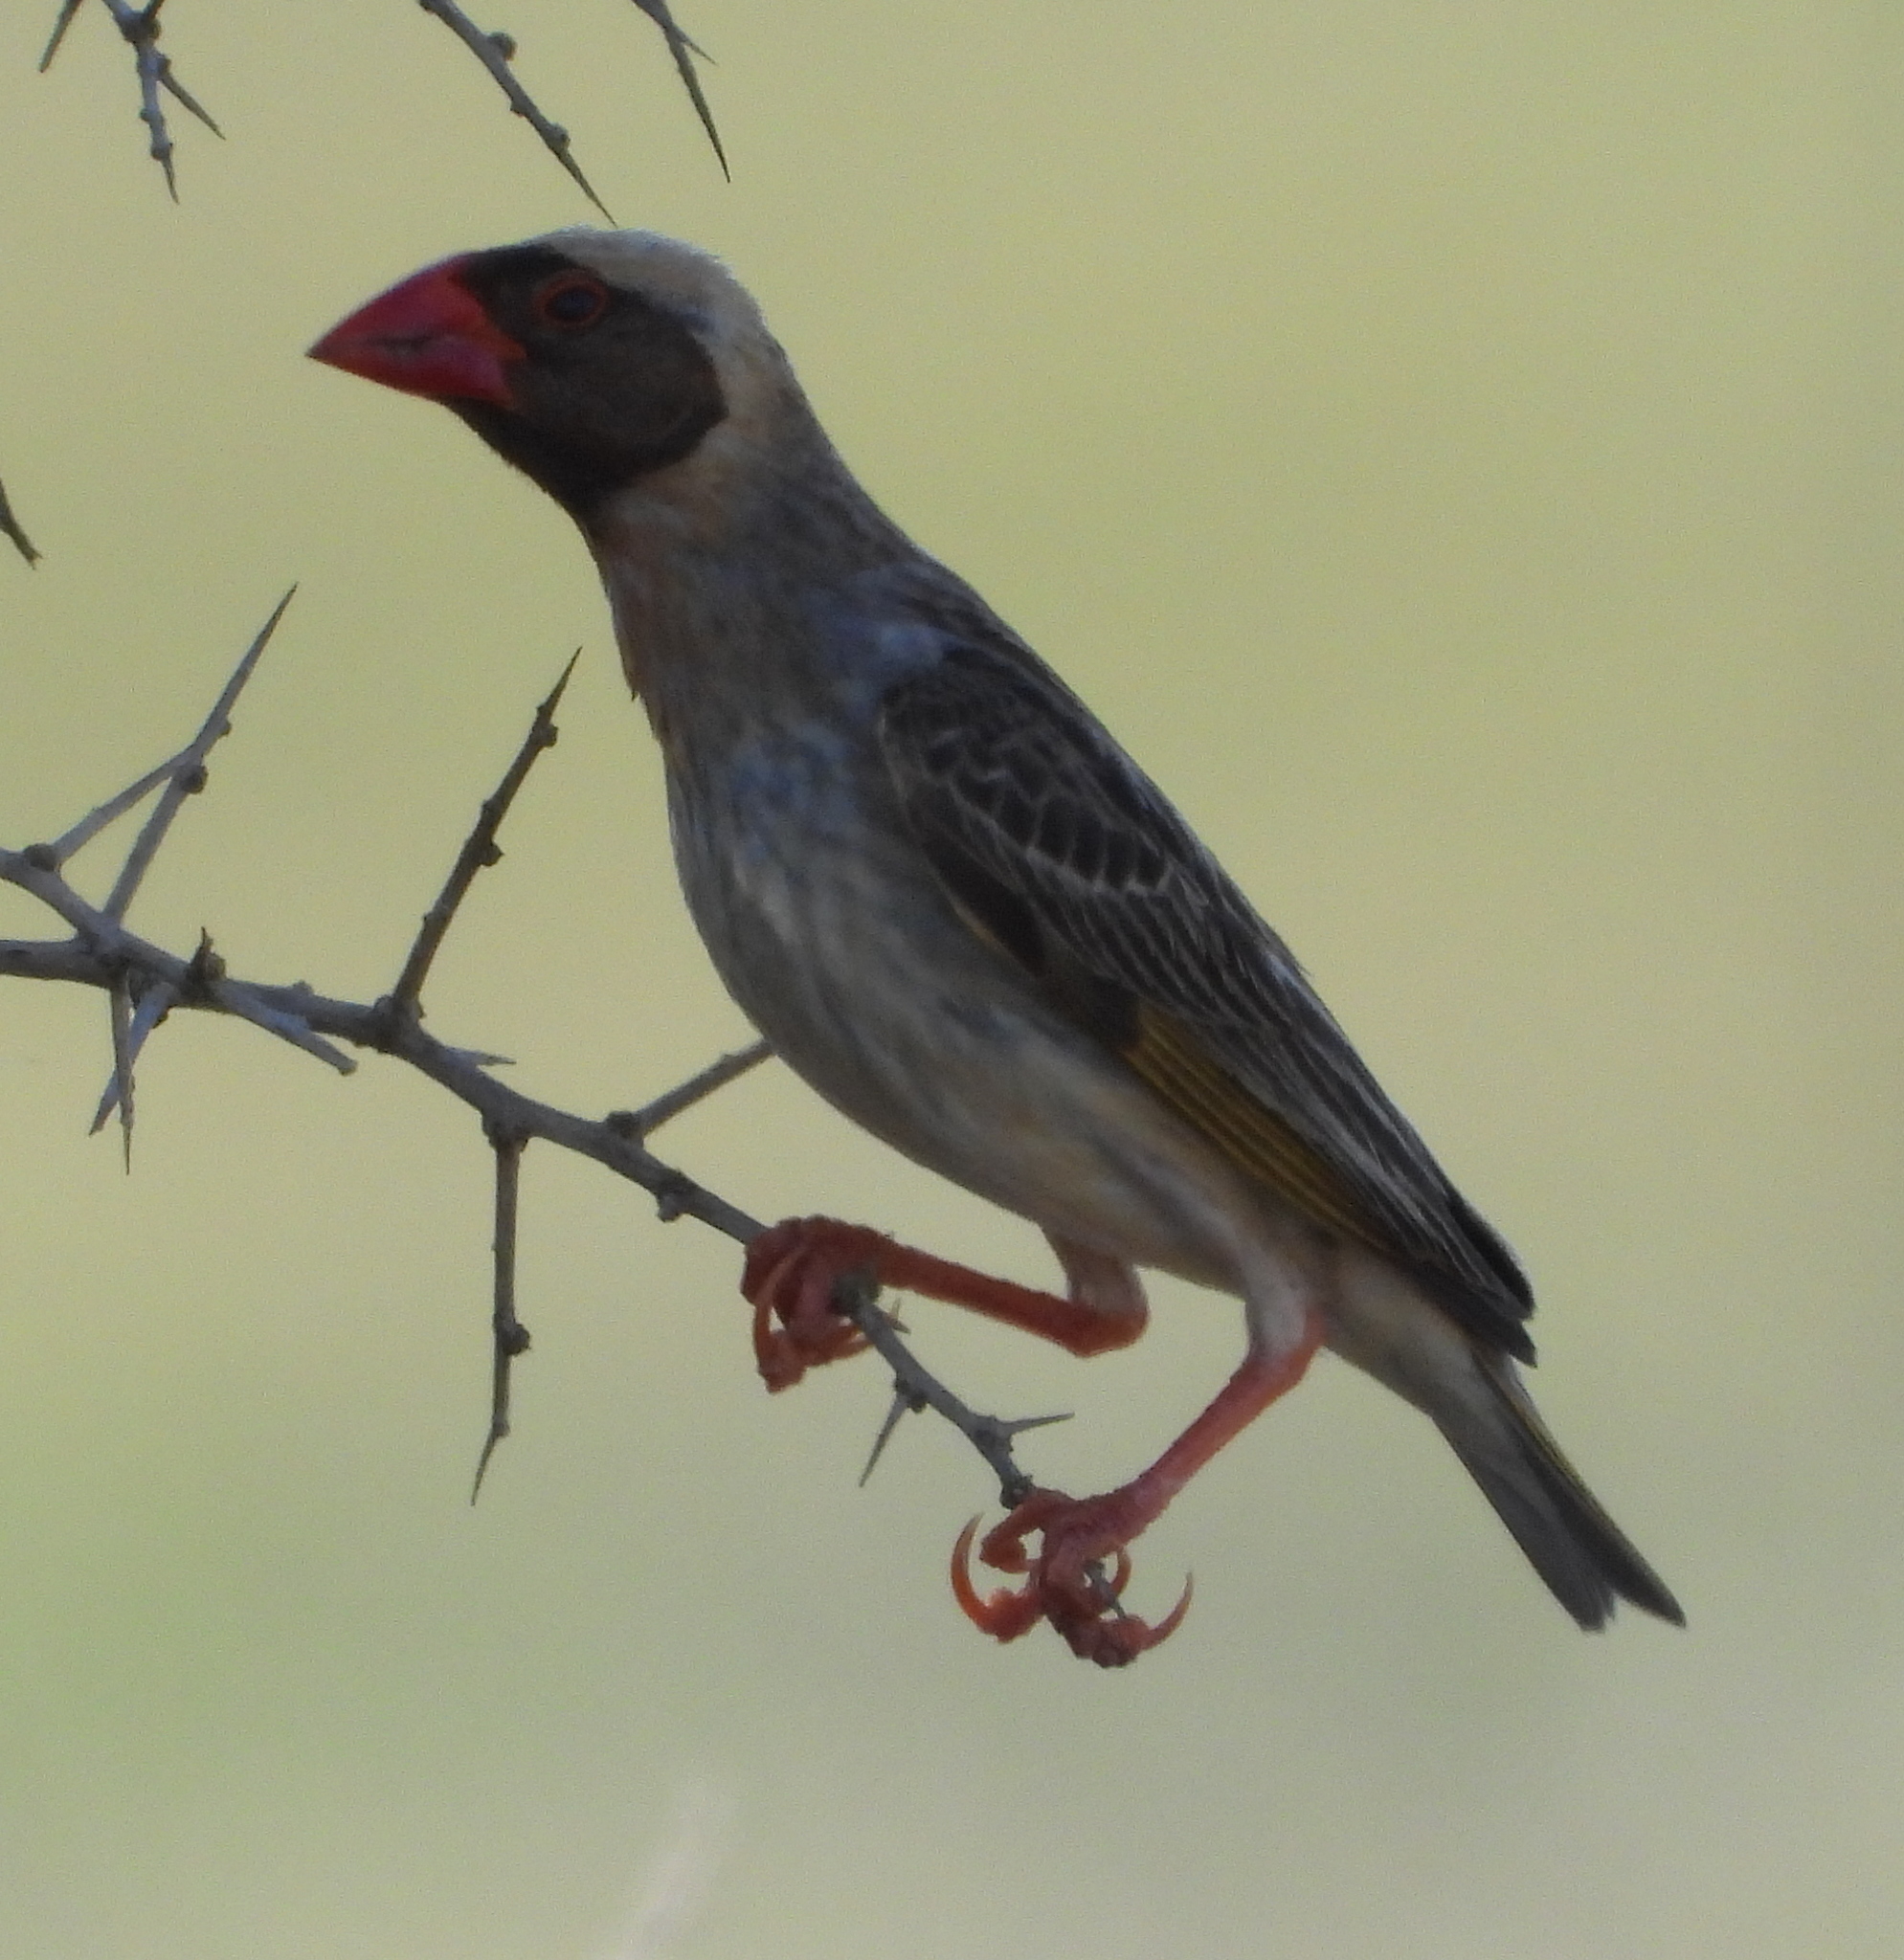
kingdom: Animalia
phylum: Chordata
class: Aves
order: Passeriformes
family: Ploceidae
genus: Quelea
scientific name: Quelea quelea
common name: Red-billed quelea
